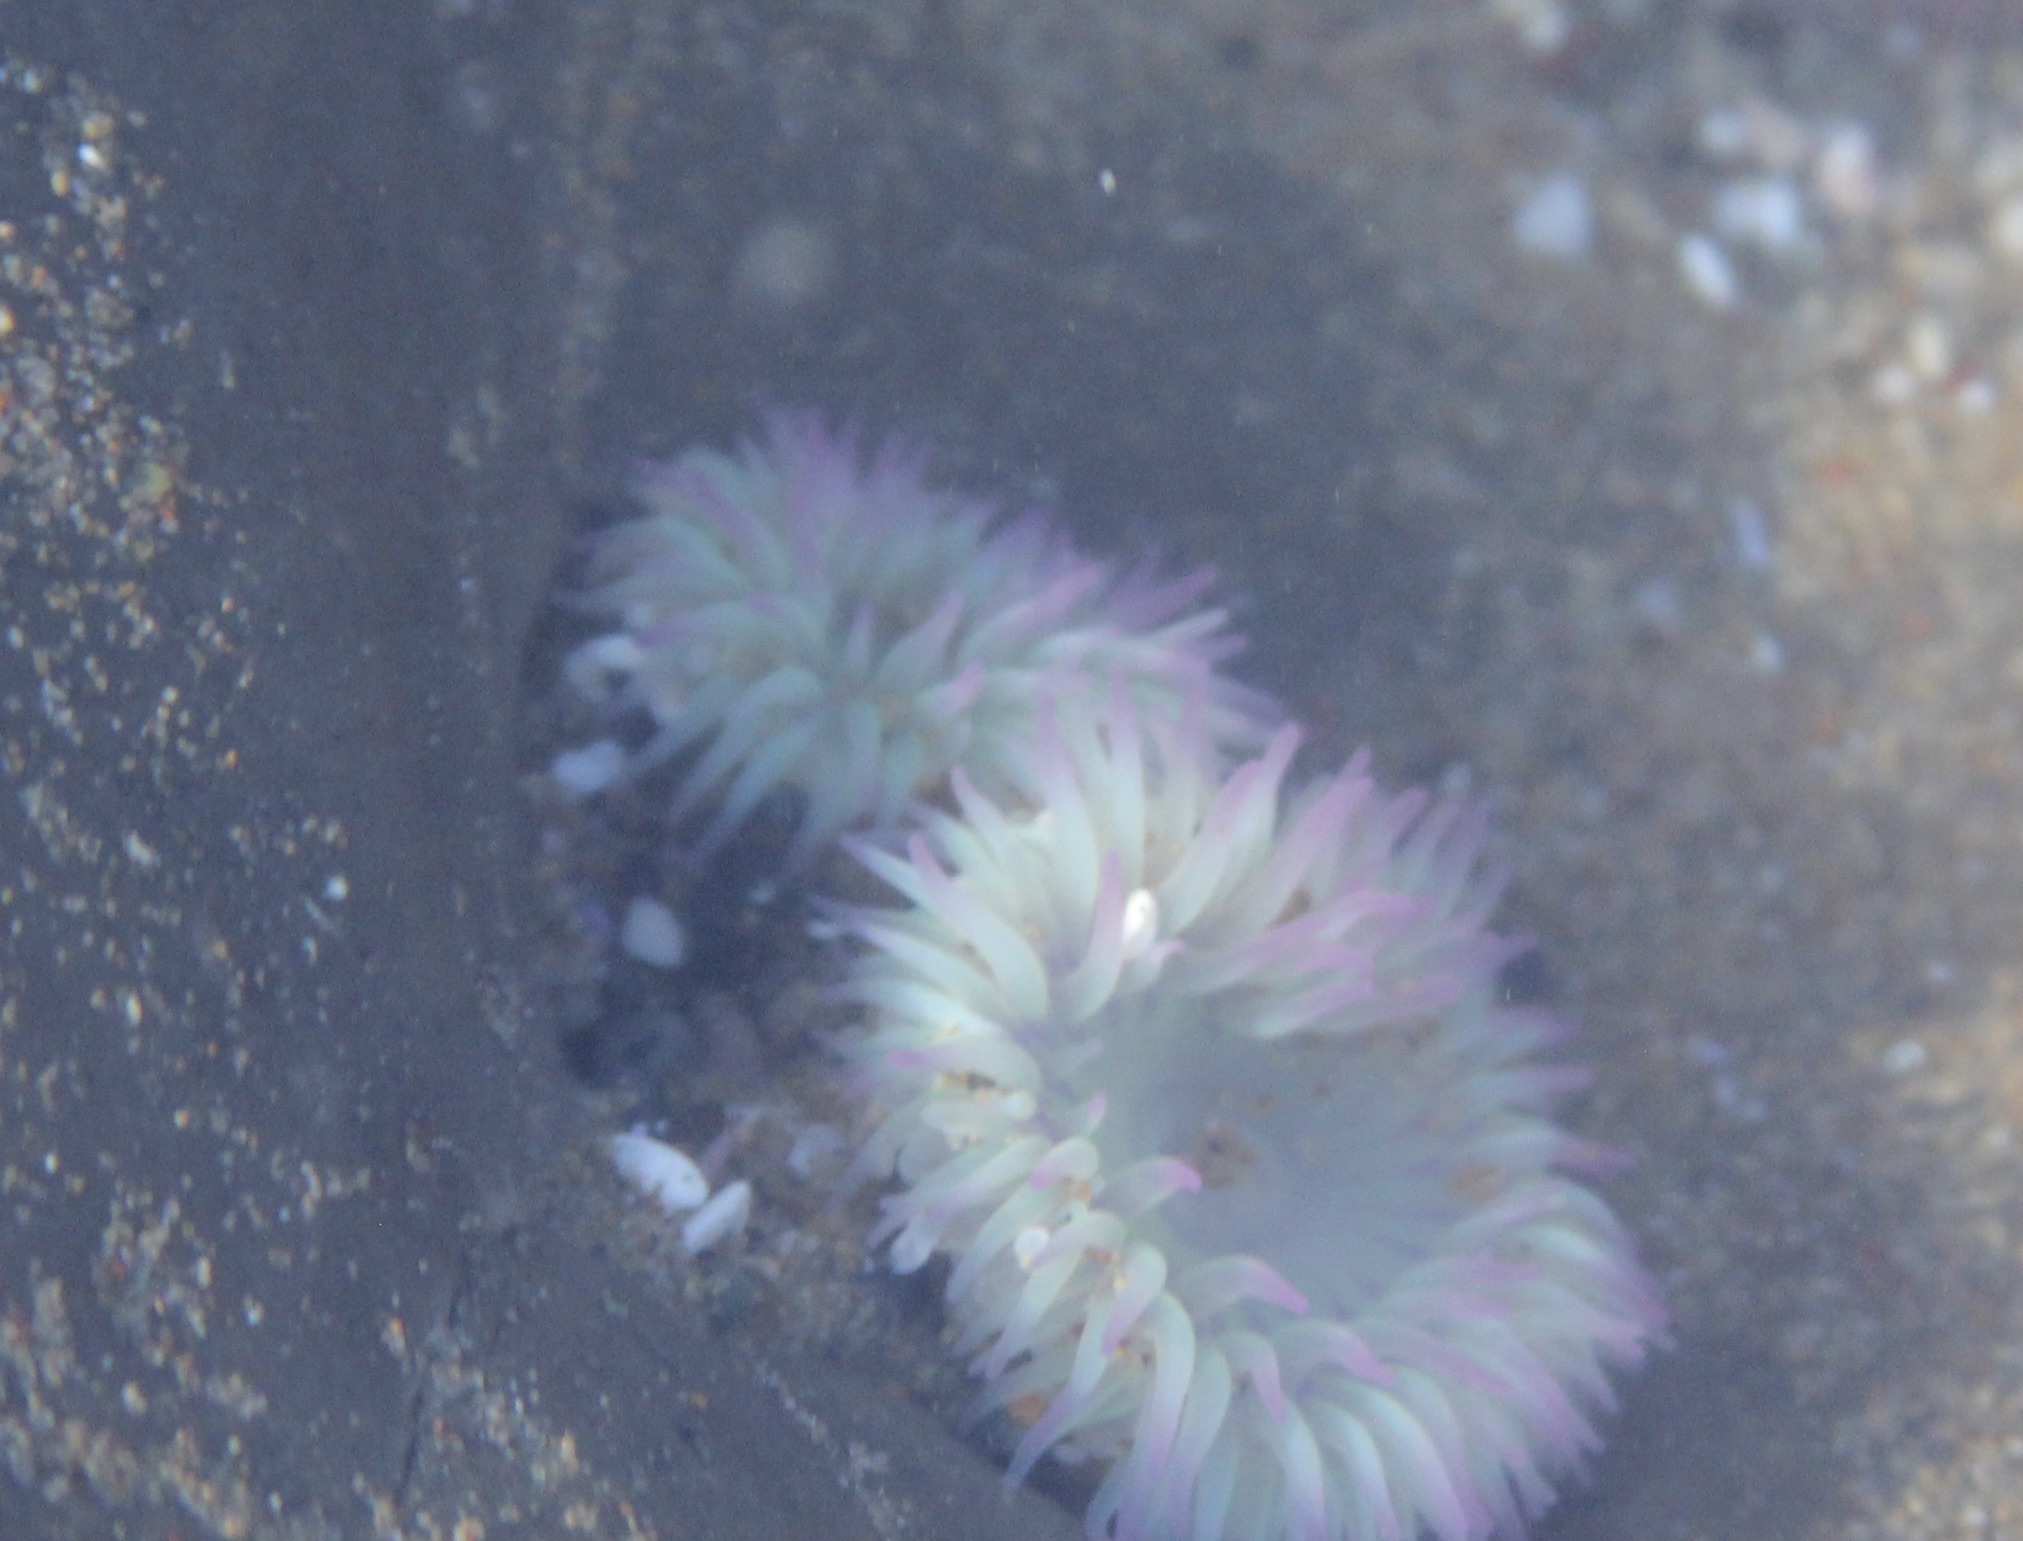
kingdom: Animalia
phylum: Cnidaria
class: Anthozoa
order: Actiniaria
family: Actiniidae
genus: Anthopleura
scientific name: Anthopleura elegantissima
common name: Clonal anemone
